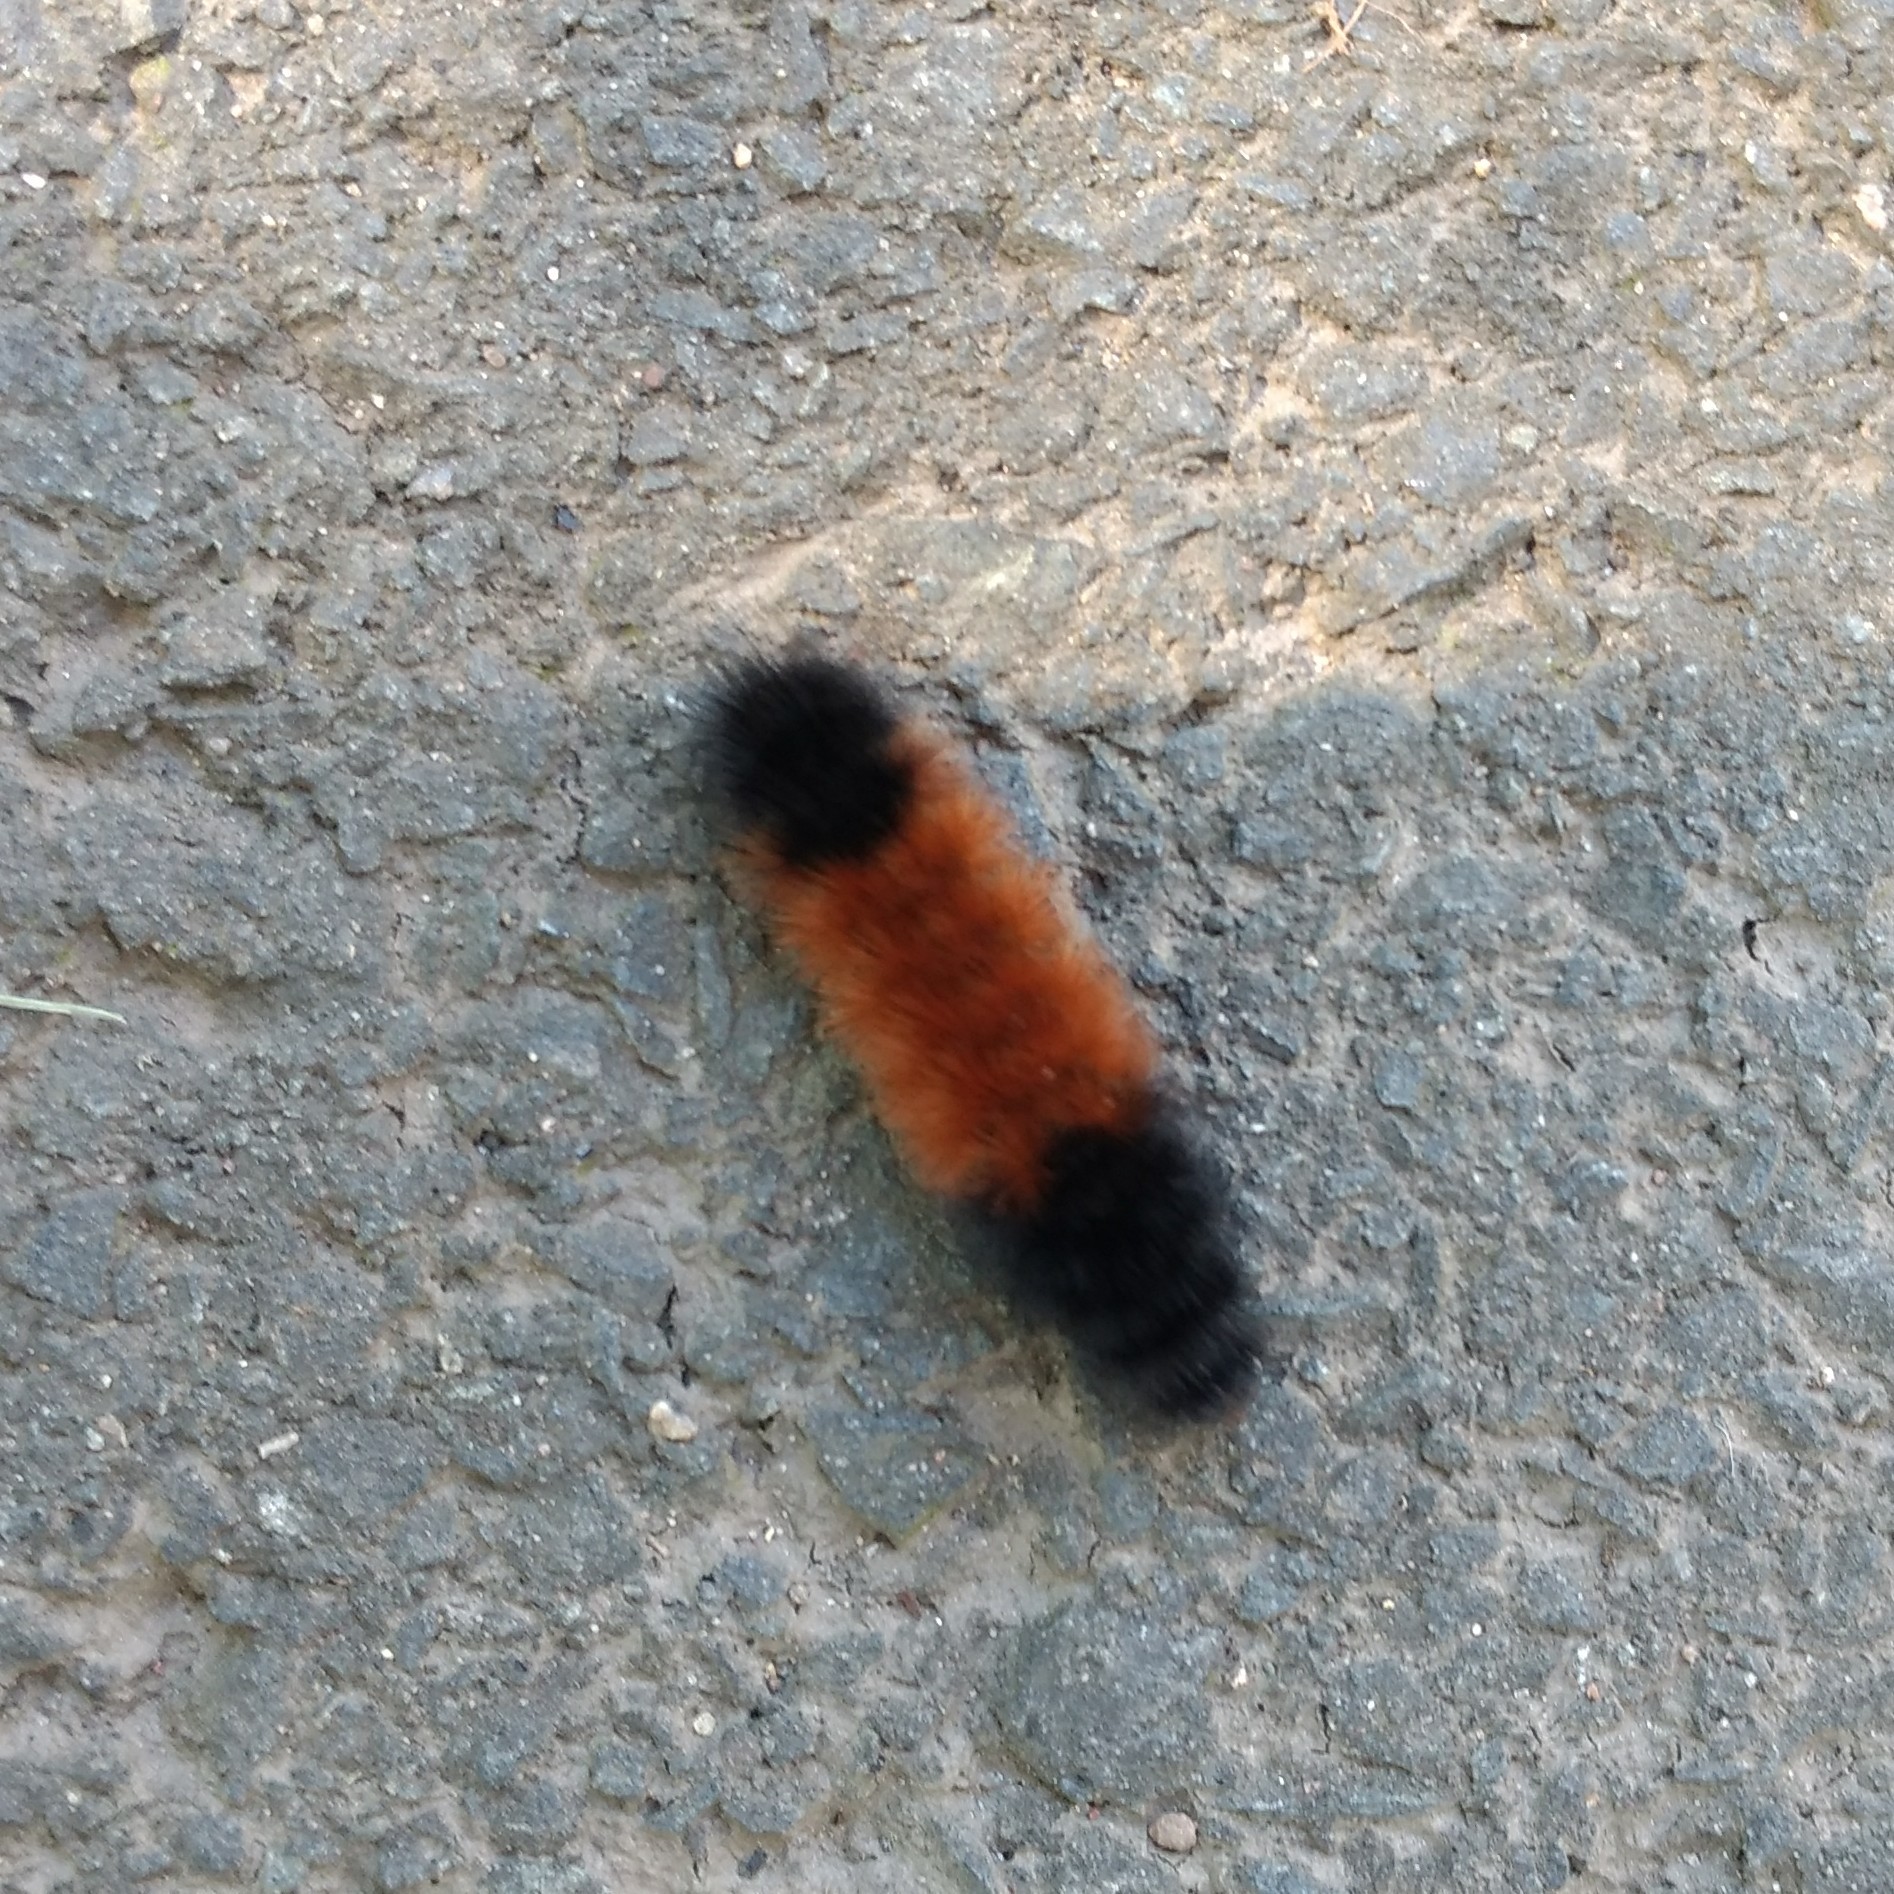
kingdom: Animalia
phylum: Arthropoda
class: Insecta
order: Lepidoptera
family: Erebidae
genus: Pyrrharctia
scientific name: Pyrrharctia isabella
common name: Isabella tiger moth
